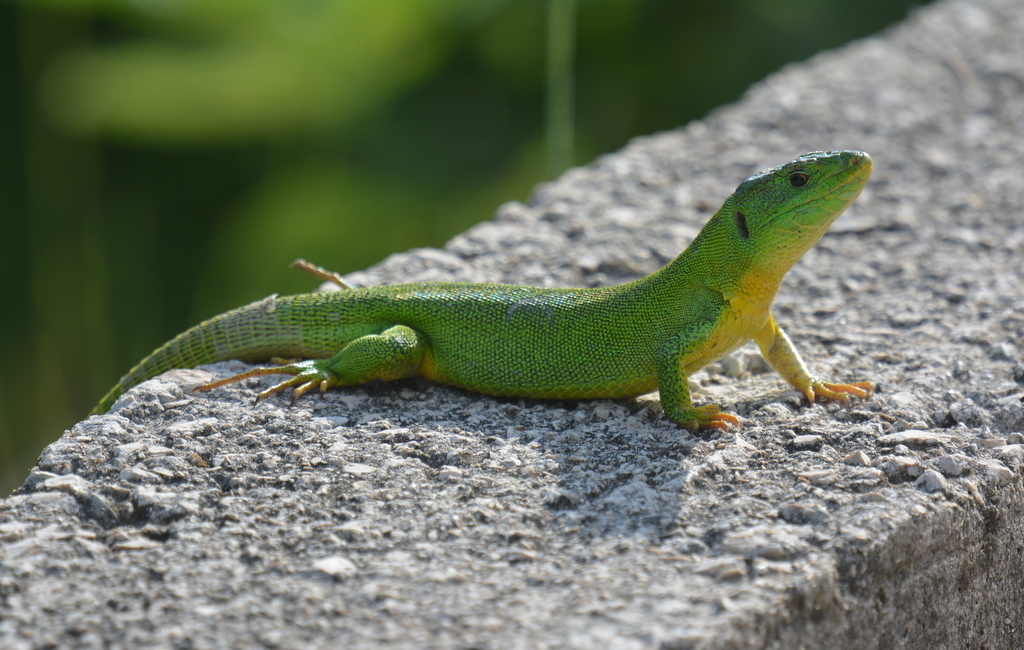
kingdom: Animalia
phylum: Chordata
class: Squamata
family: Lacertidae
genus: Lacerta
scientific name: Lacerta trilineata
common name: Balkan green lizard
